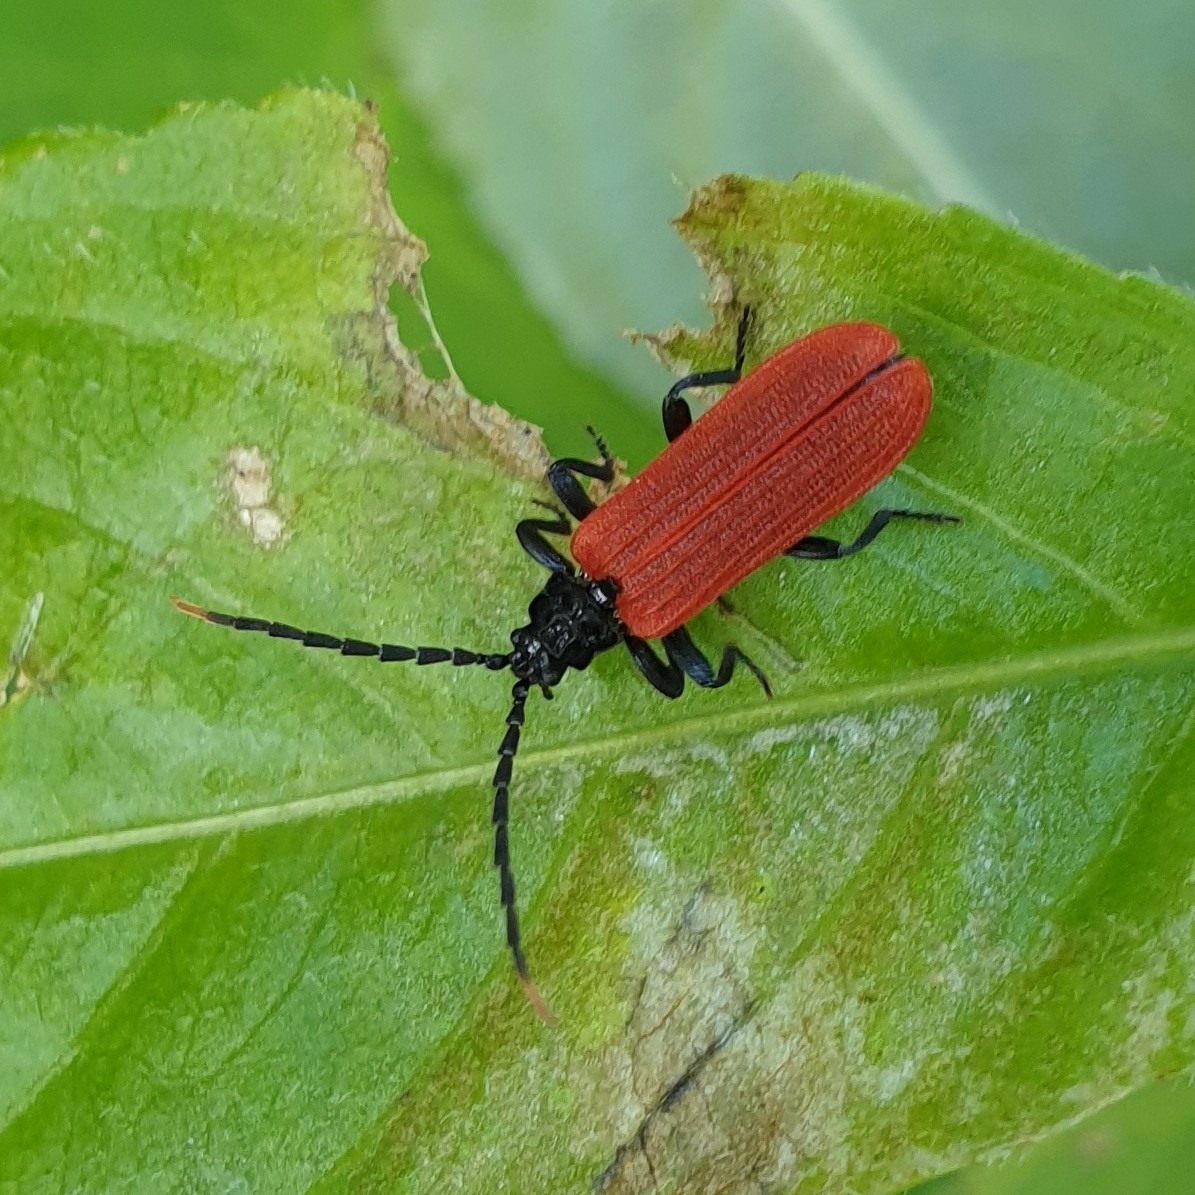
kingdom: Animalia
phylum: Arthropoda
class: Insecta
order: Coleoptera
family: Lycidae
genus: Platycis
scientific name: Platycis minutus
